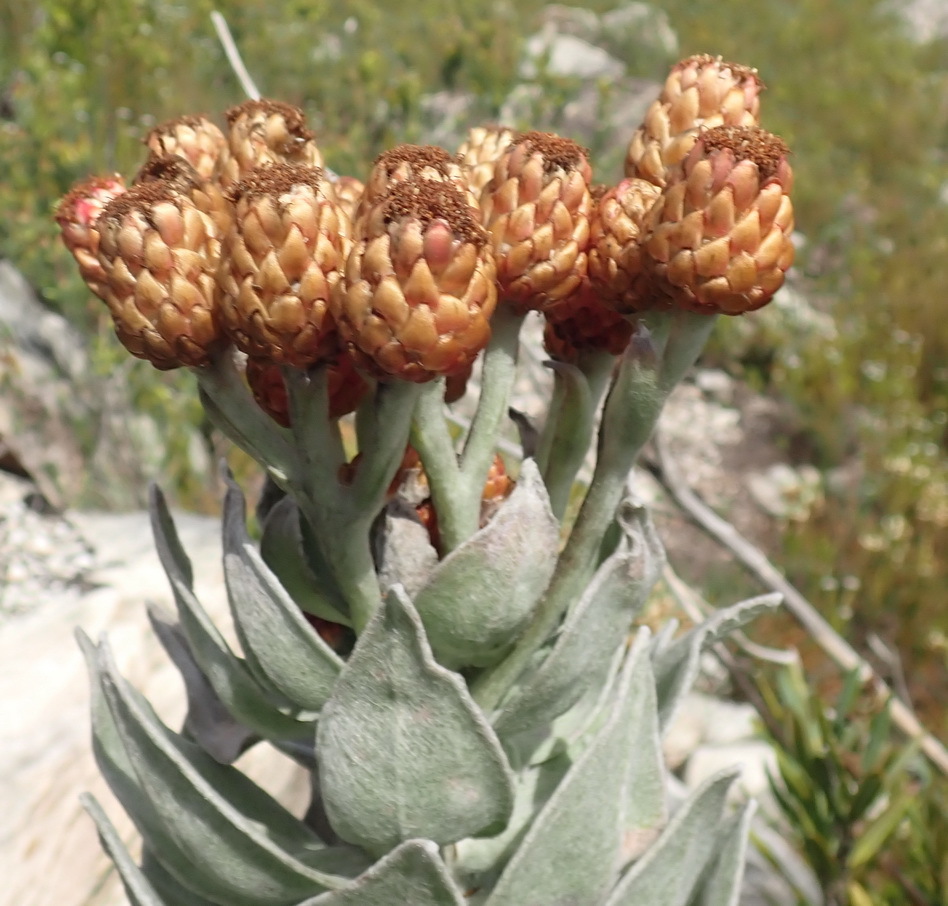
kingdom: Plantae
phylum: Tracheophyta
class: Magnoliopsida
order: Asterales
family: Asteraceae
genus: Syncarpha
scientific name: Syncarpha eximia
